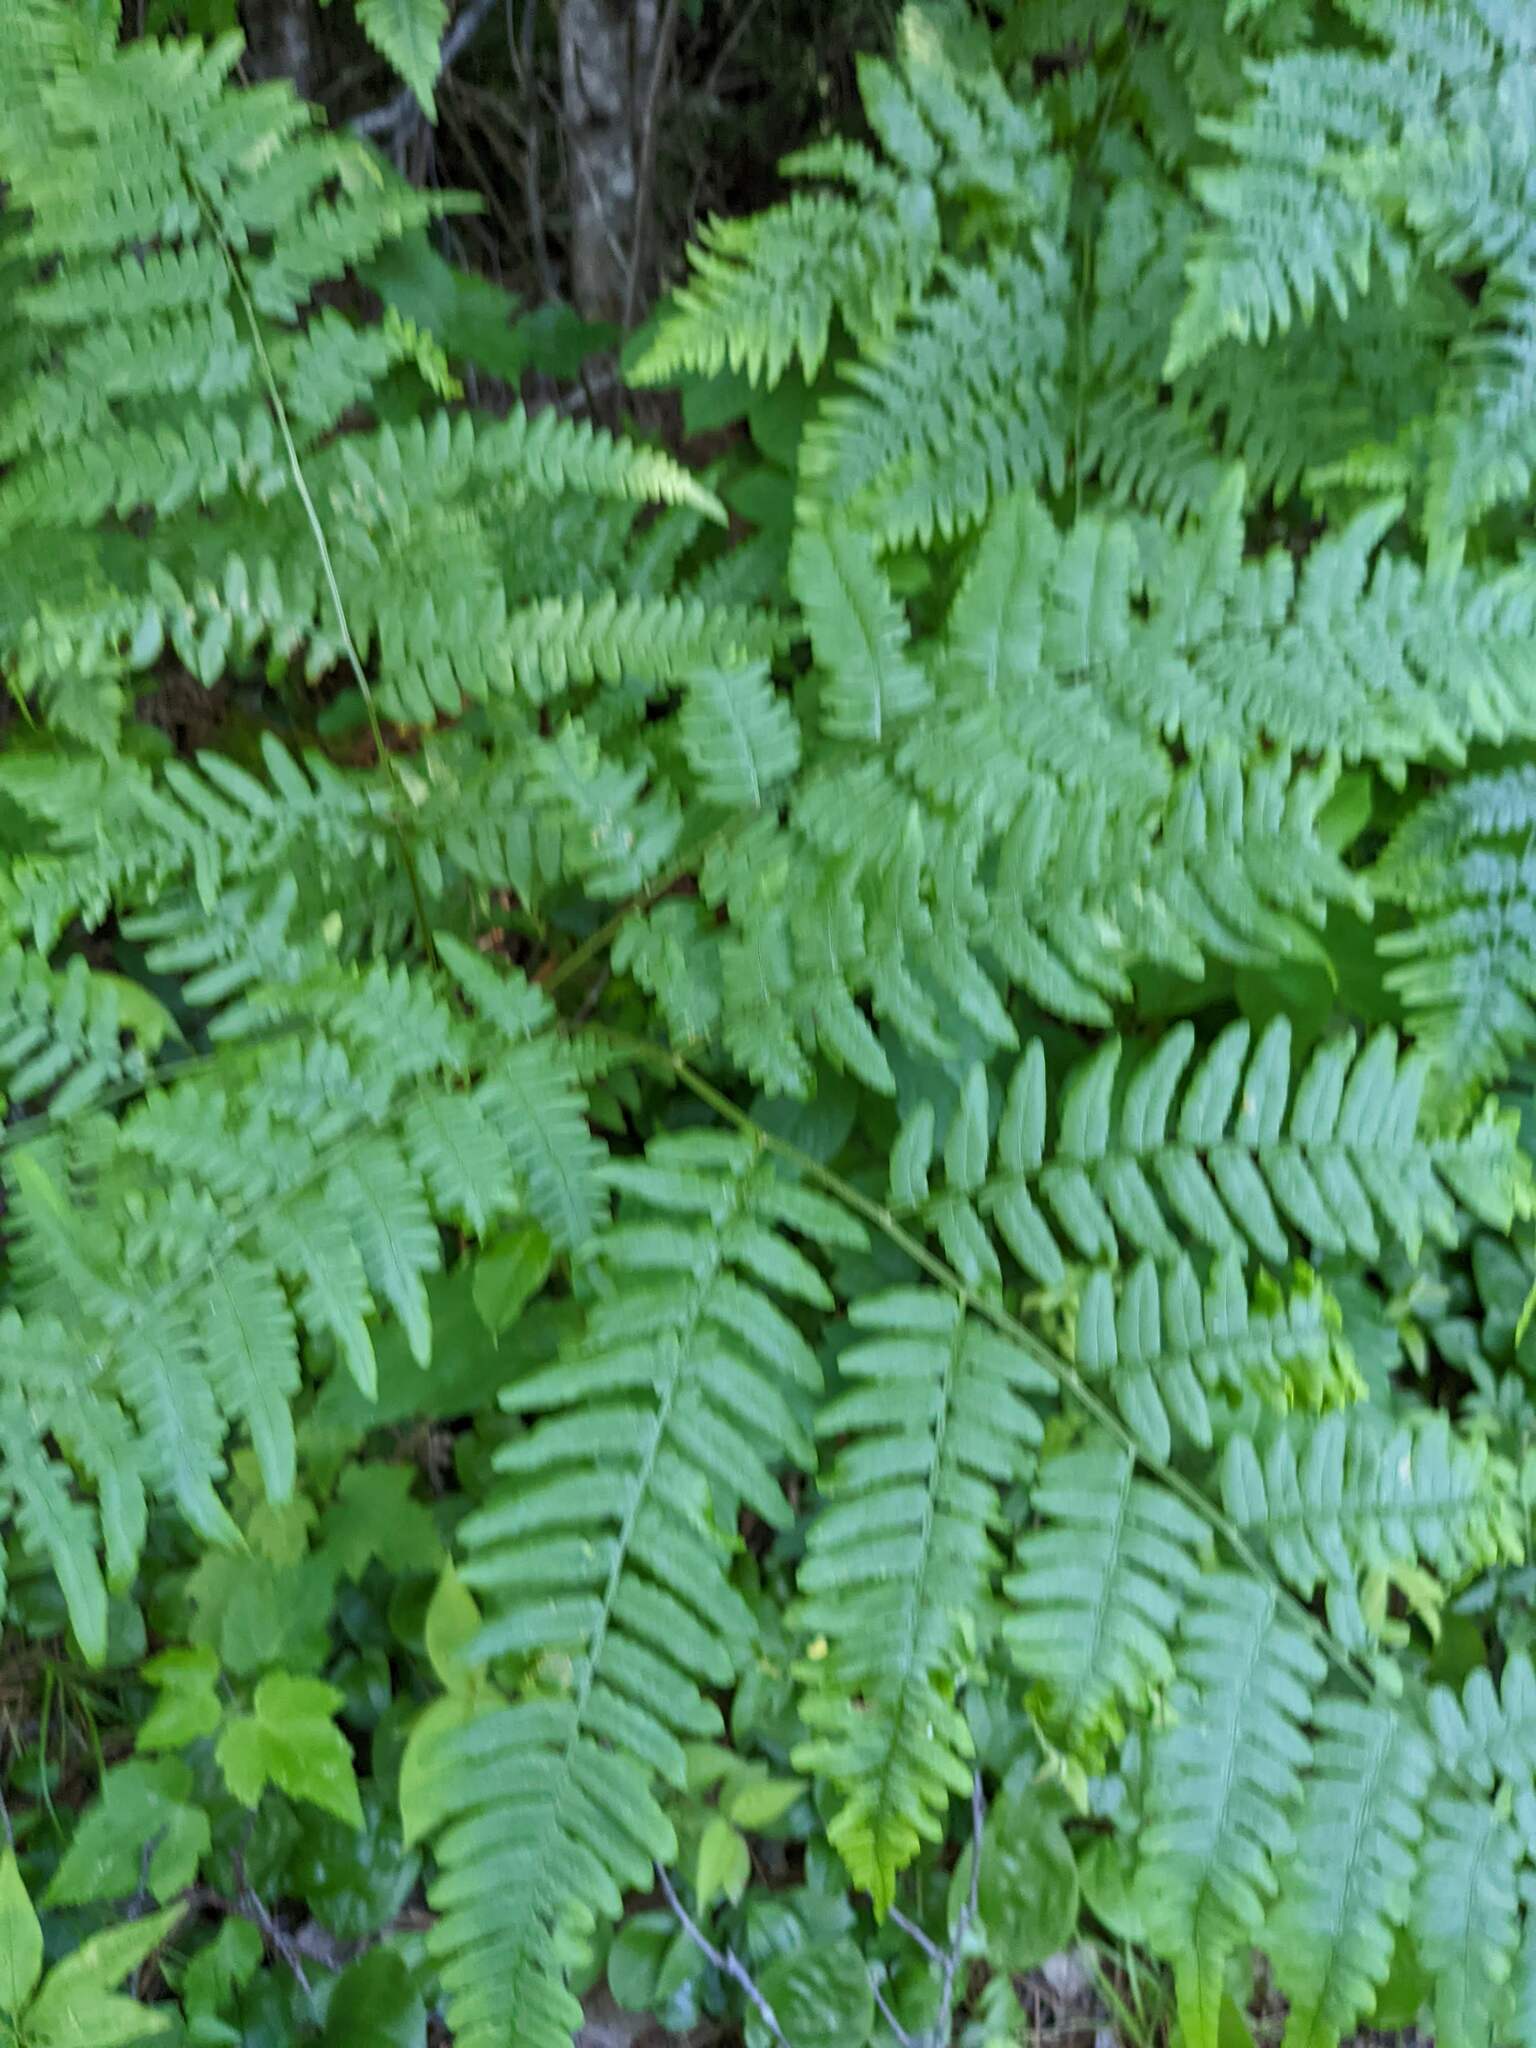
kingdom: Plantae
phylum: Tracheophyta
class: Polypodiopsida
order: Polypodiales
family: Dennstaedtiaceae
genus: Pteridium
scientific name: Pteridium aquilinum
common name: Bracken
